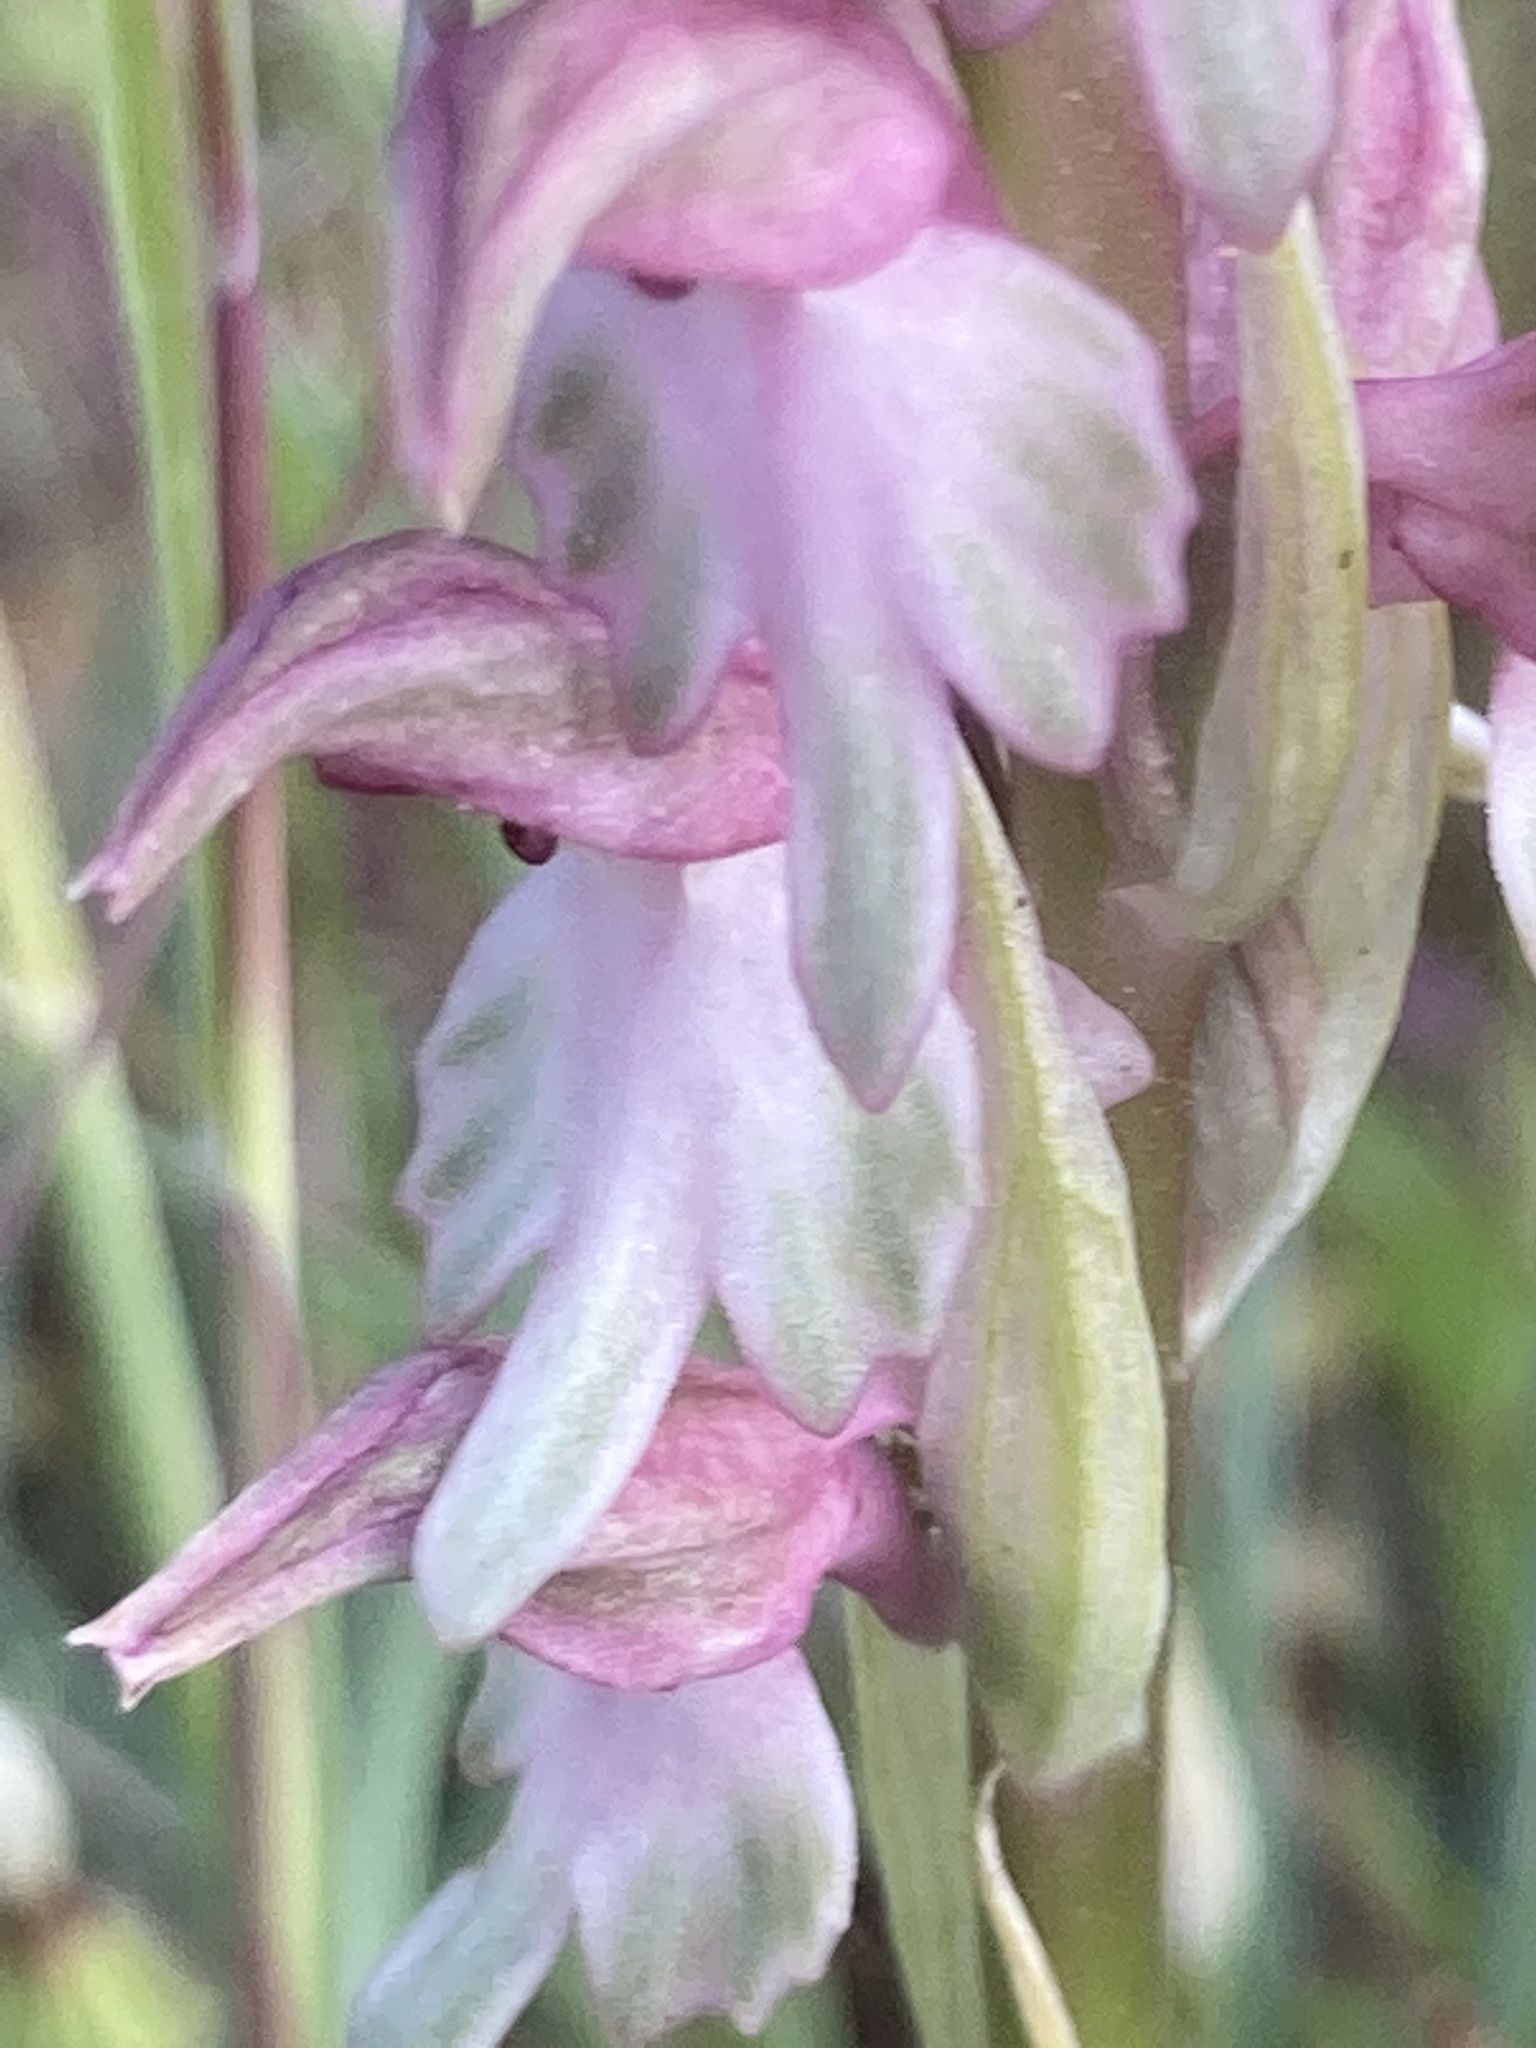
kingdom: Plantae
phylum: Tracheophyta
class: Liliopsida
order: Asparagales
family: Orchidaceae
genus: Anacamptis
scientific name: Anacamptis sancta
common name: Holy orchid
